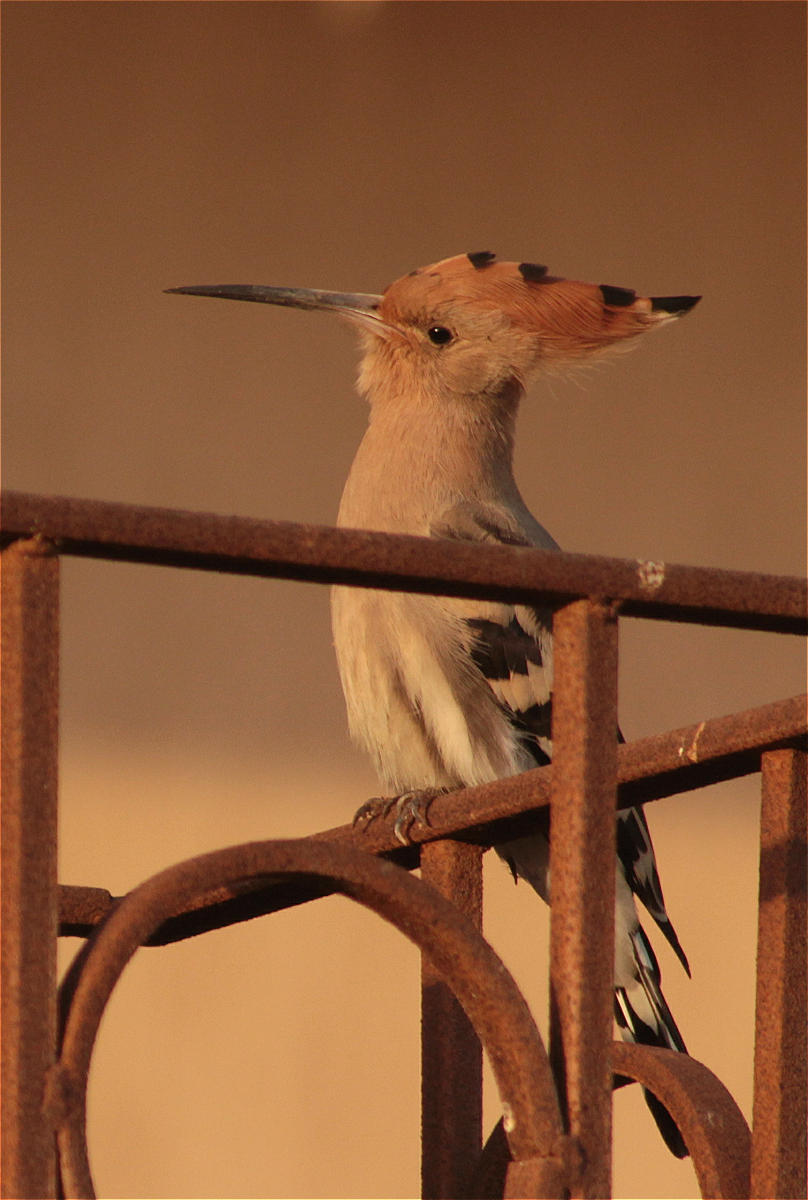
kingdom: Animalia
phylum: Chordata
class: Aves
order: Bucerotiformes
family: Upupidae
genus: Upupa
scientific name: Upupa epops
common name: Eurasian hoopoe
